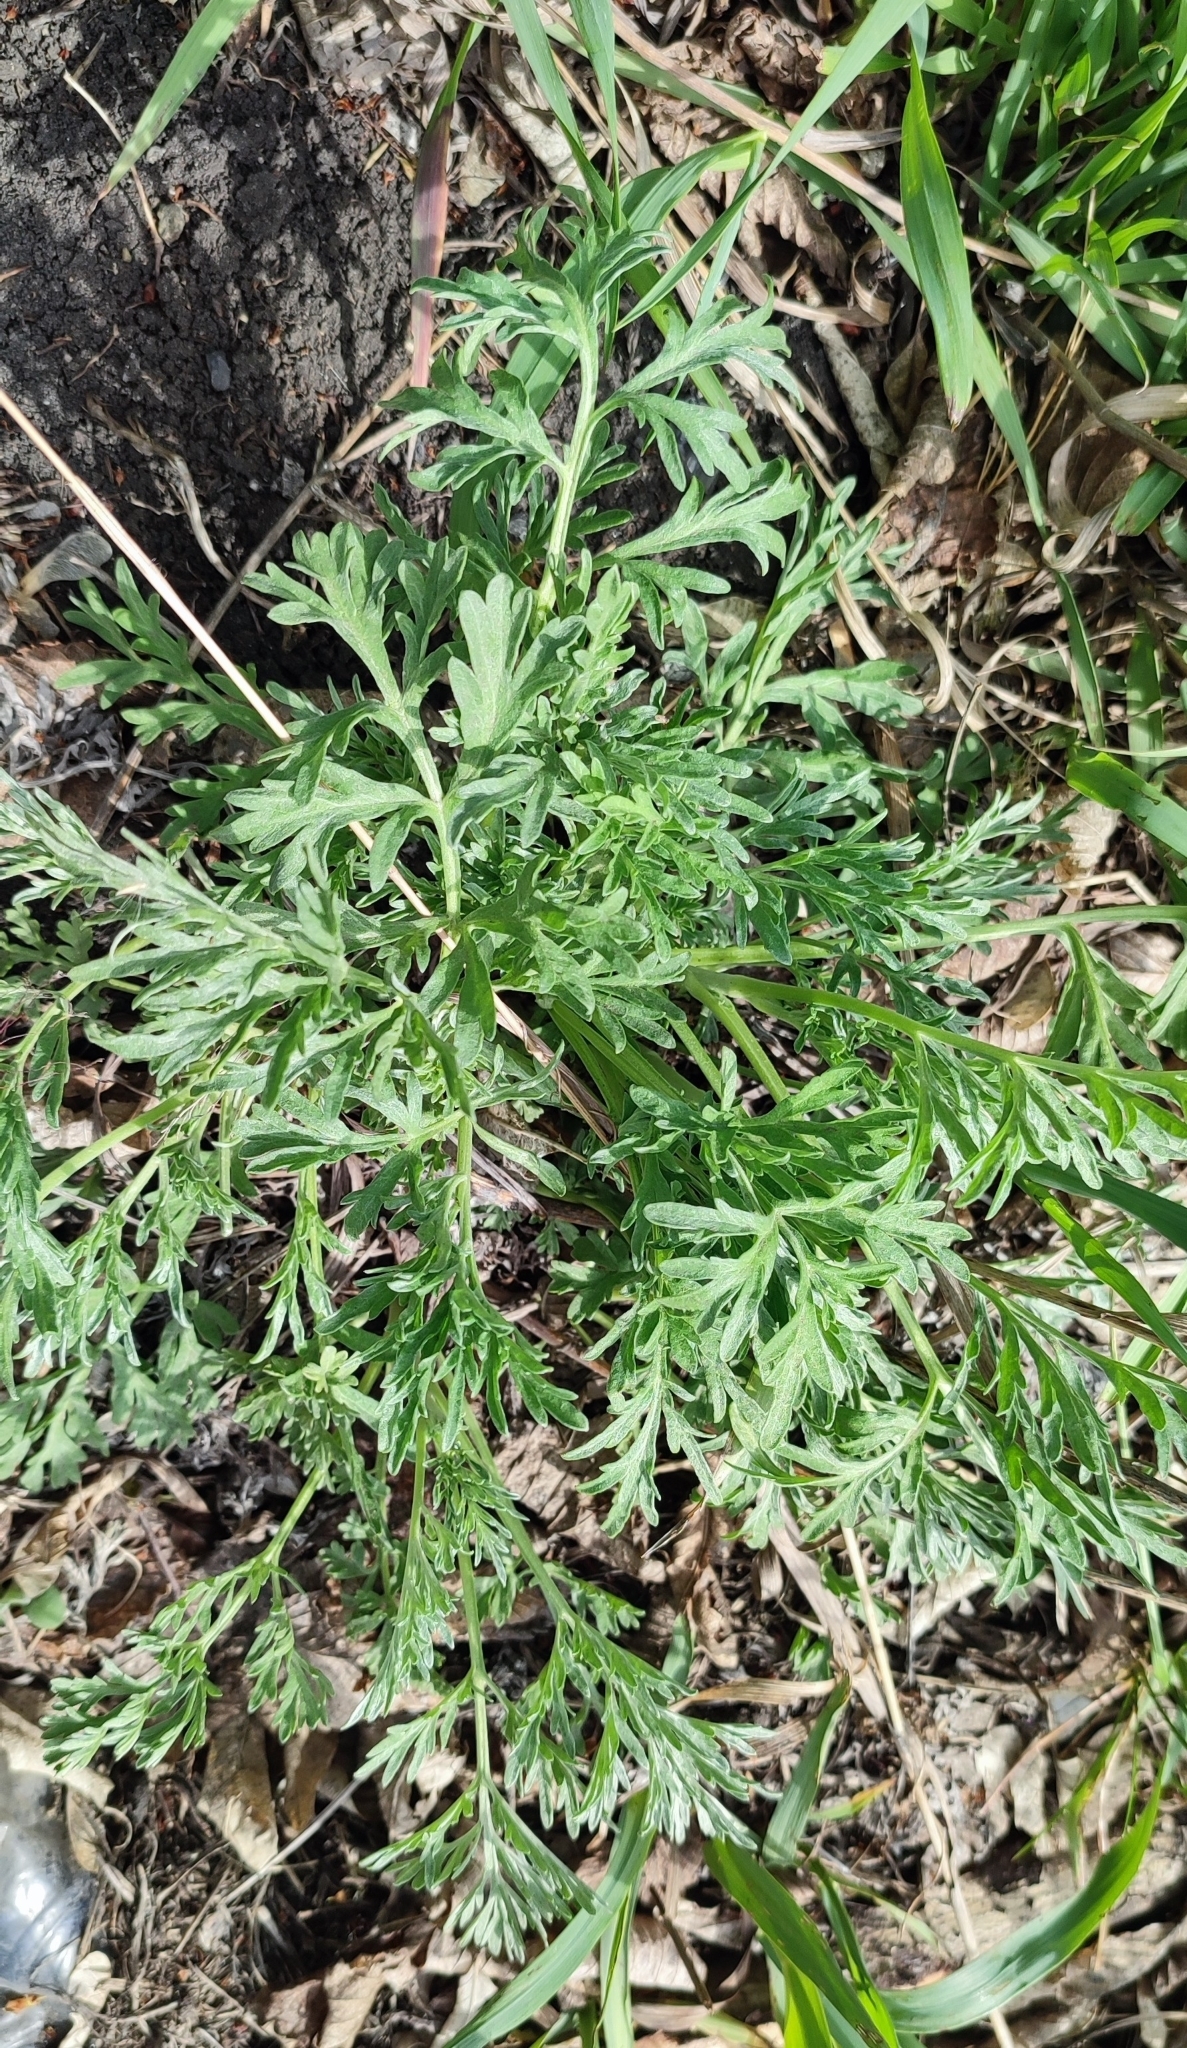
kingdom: Plantae
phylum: Tracheophyta
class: Magnoliopsida
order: Asterales
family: Asteraceae
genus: Artemisia
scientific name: Artemisia sieversiana
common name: Sieversian wormwood
